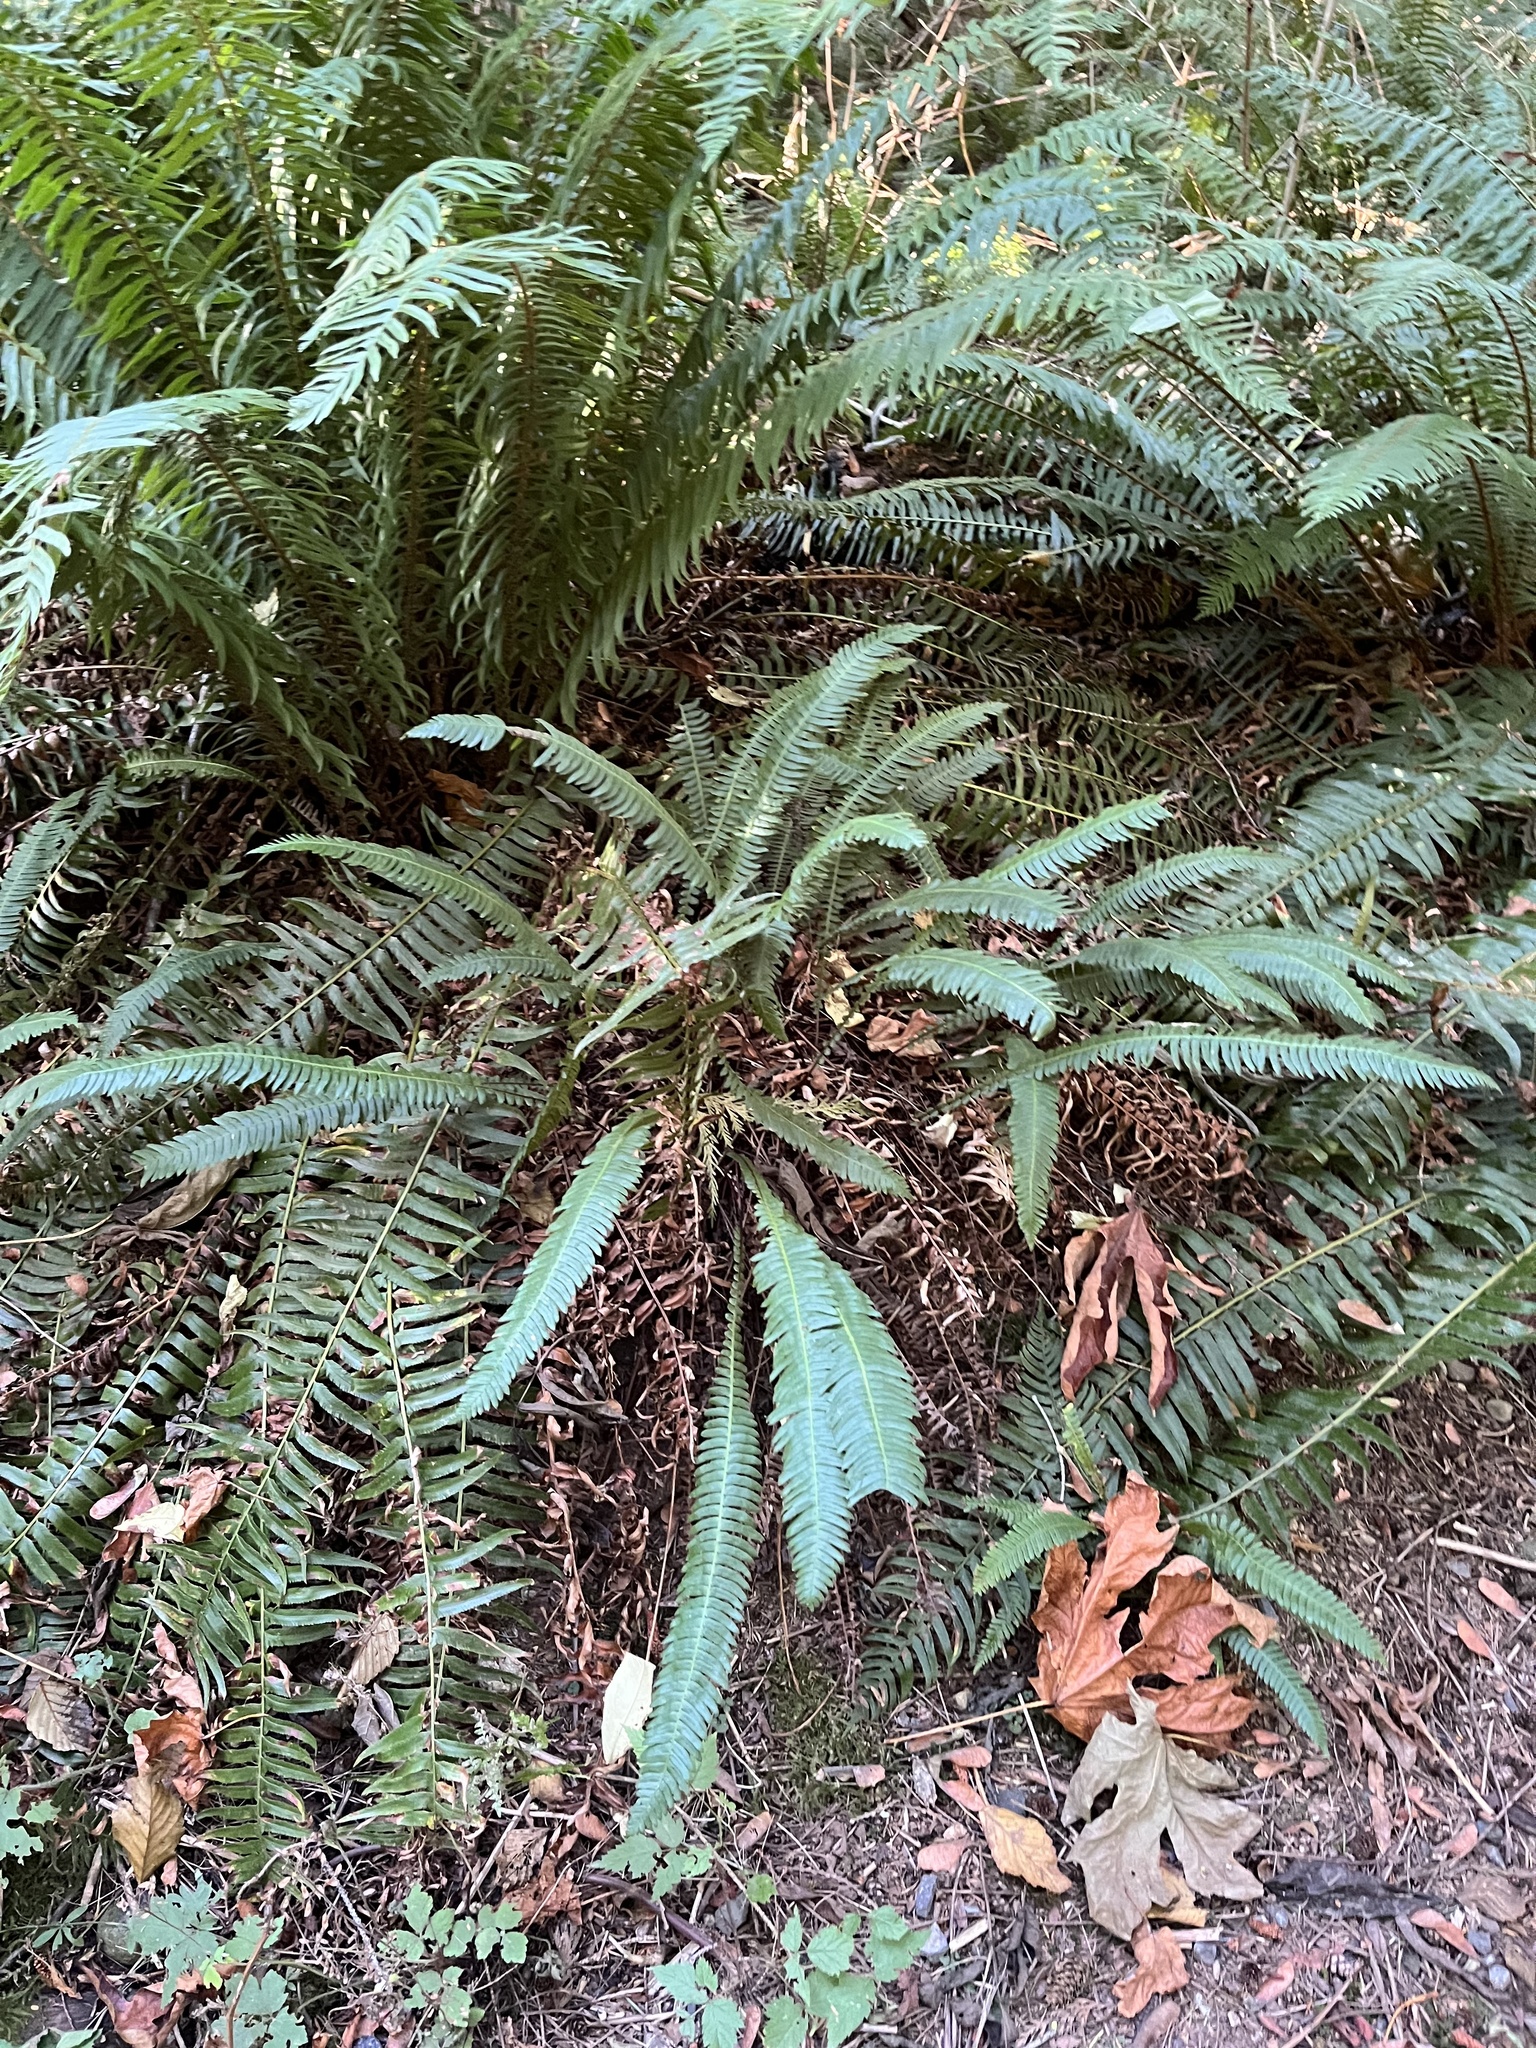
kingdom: Plantae
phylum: Tracheophyta
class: Polypodiopsida
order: Polypodiales
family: Blechnaceae
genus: Struthiopteris
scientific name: Struthiopteris spicant
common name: Deer fern
